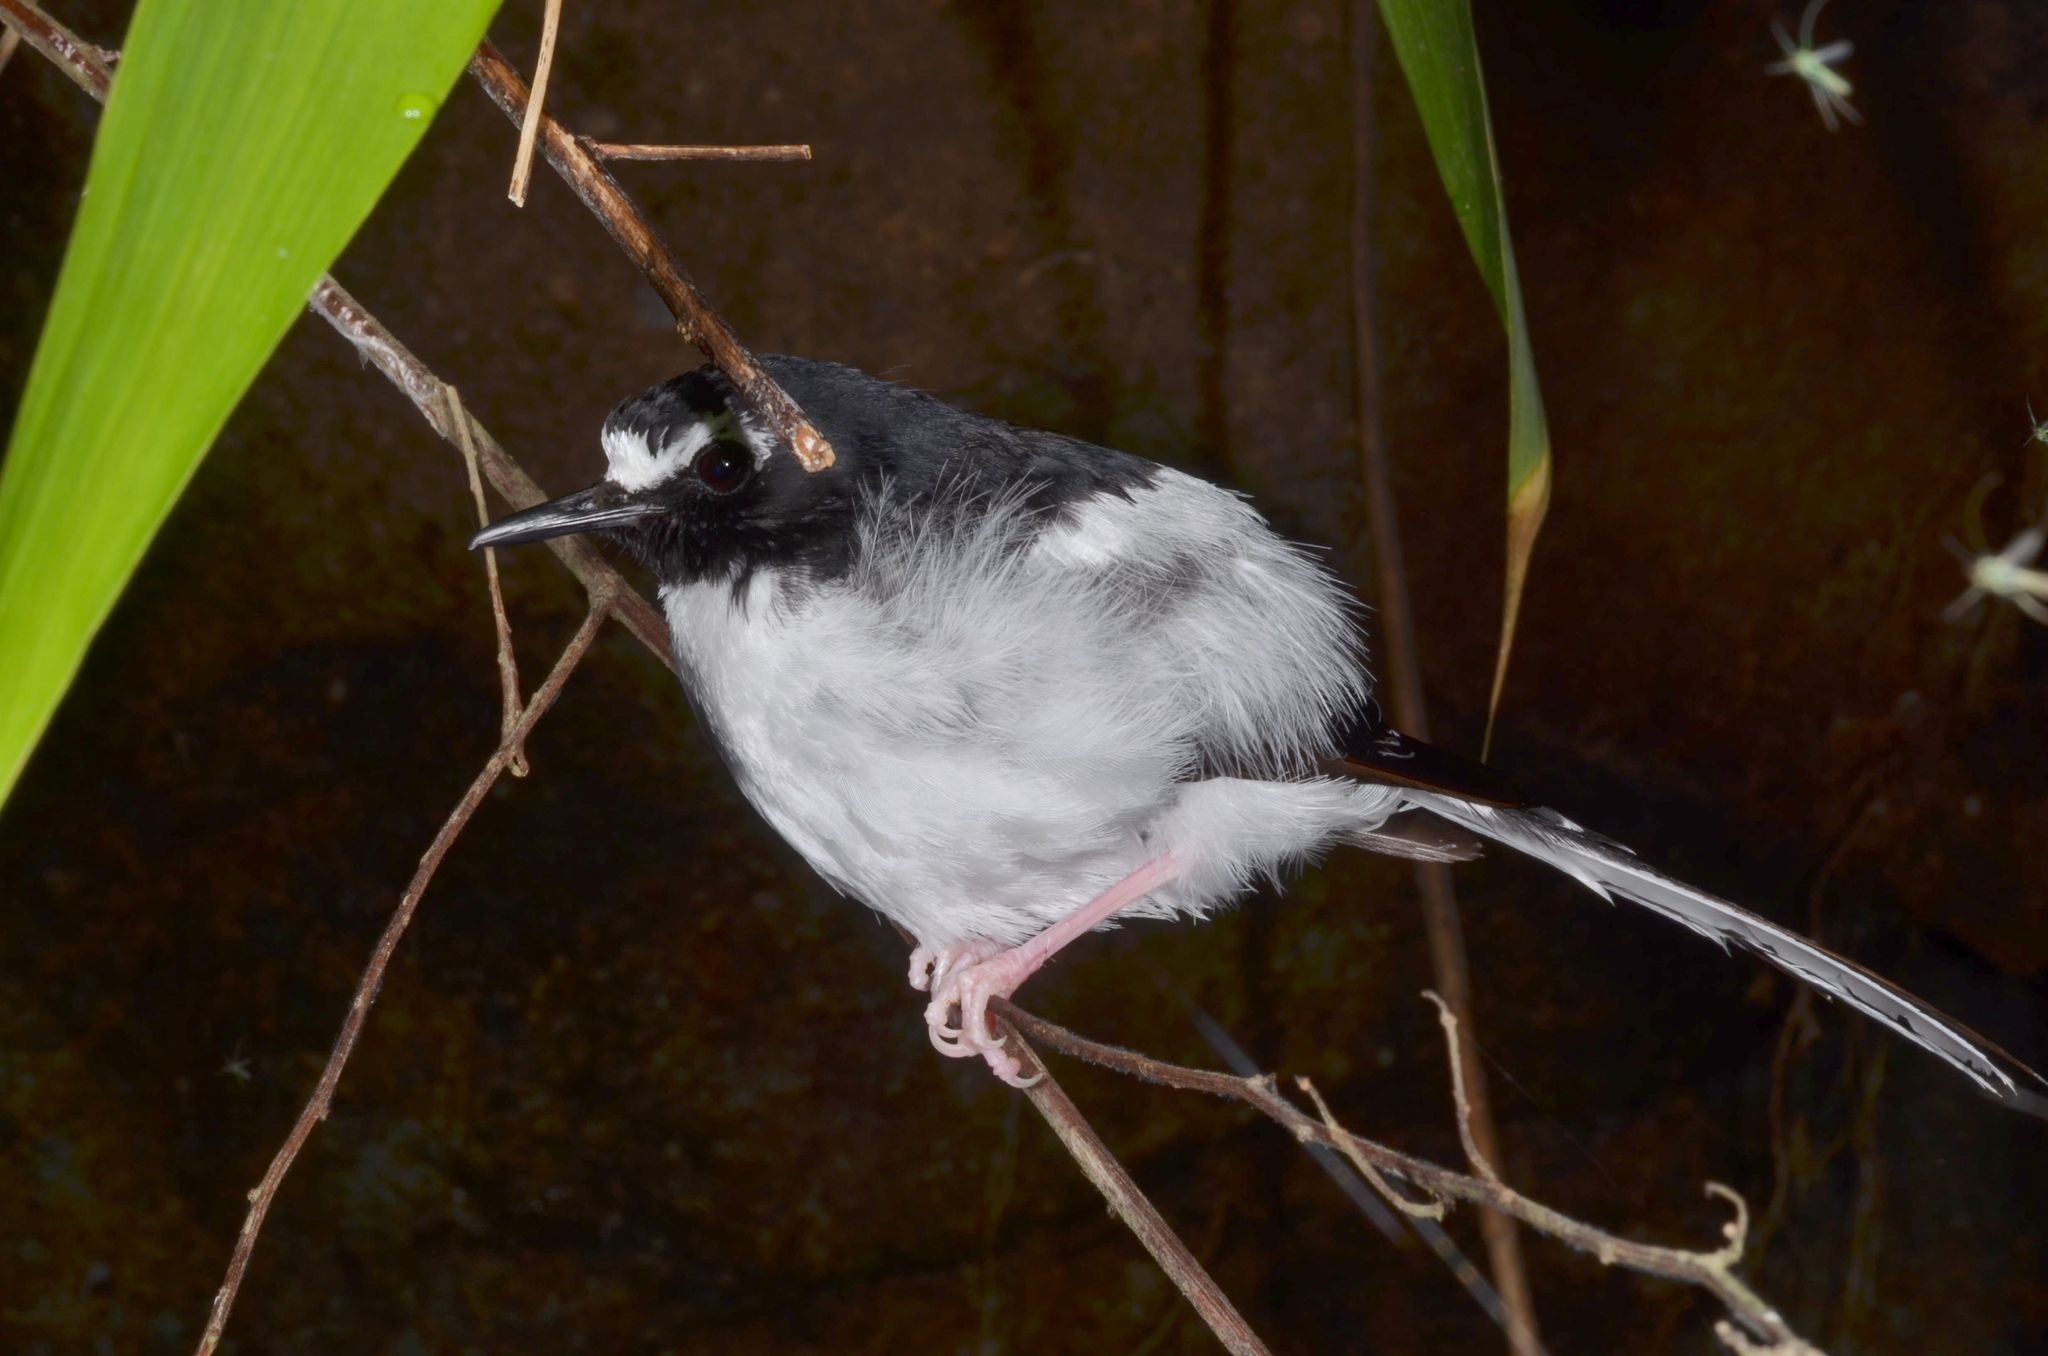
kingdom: Animalia
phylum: Chordata
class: Aves
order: Passeriformes
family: Muscicapidae
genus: Enicurus
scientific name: Enicurus schistaceus
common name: Slaty-backed forktail
